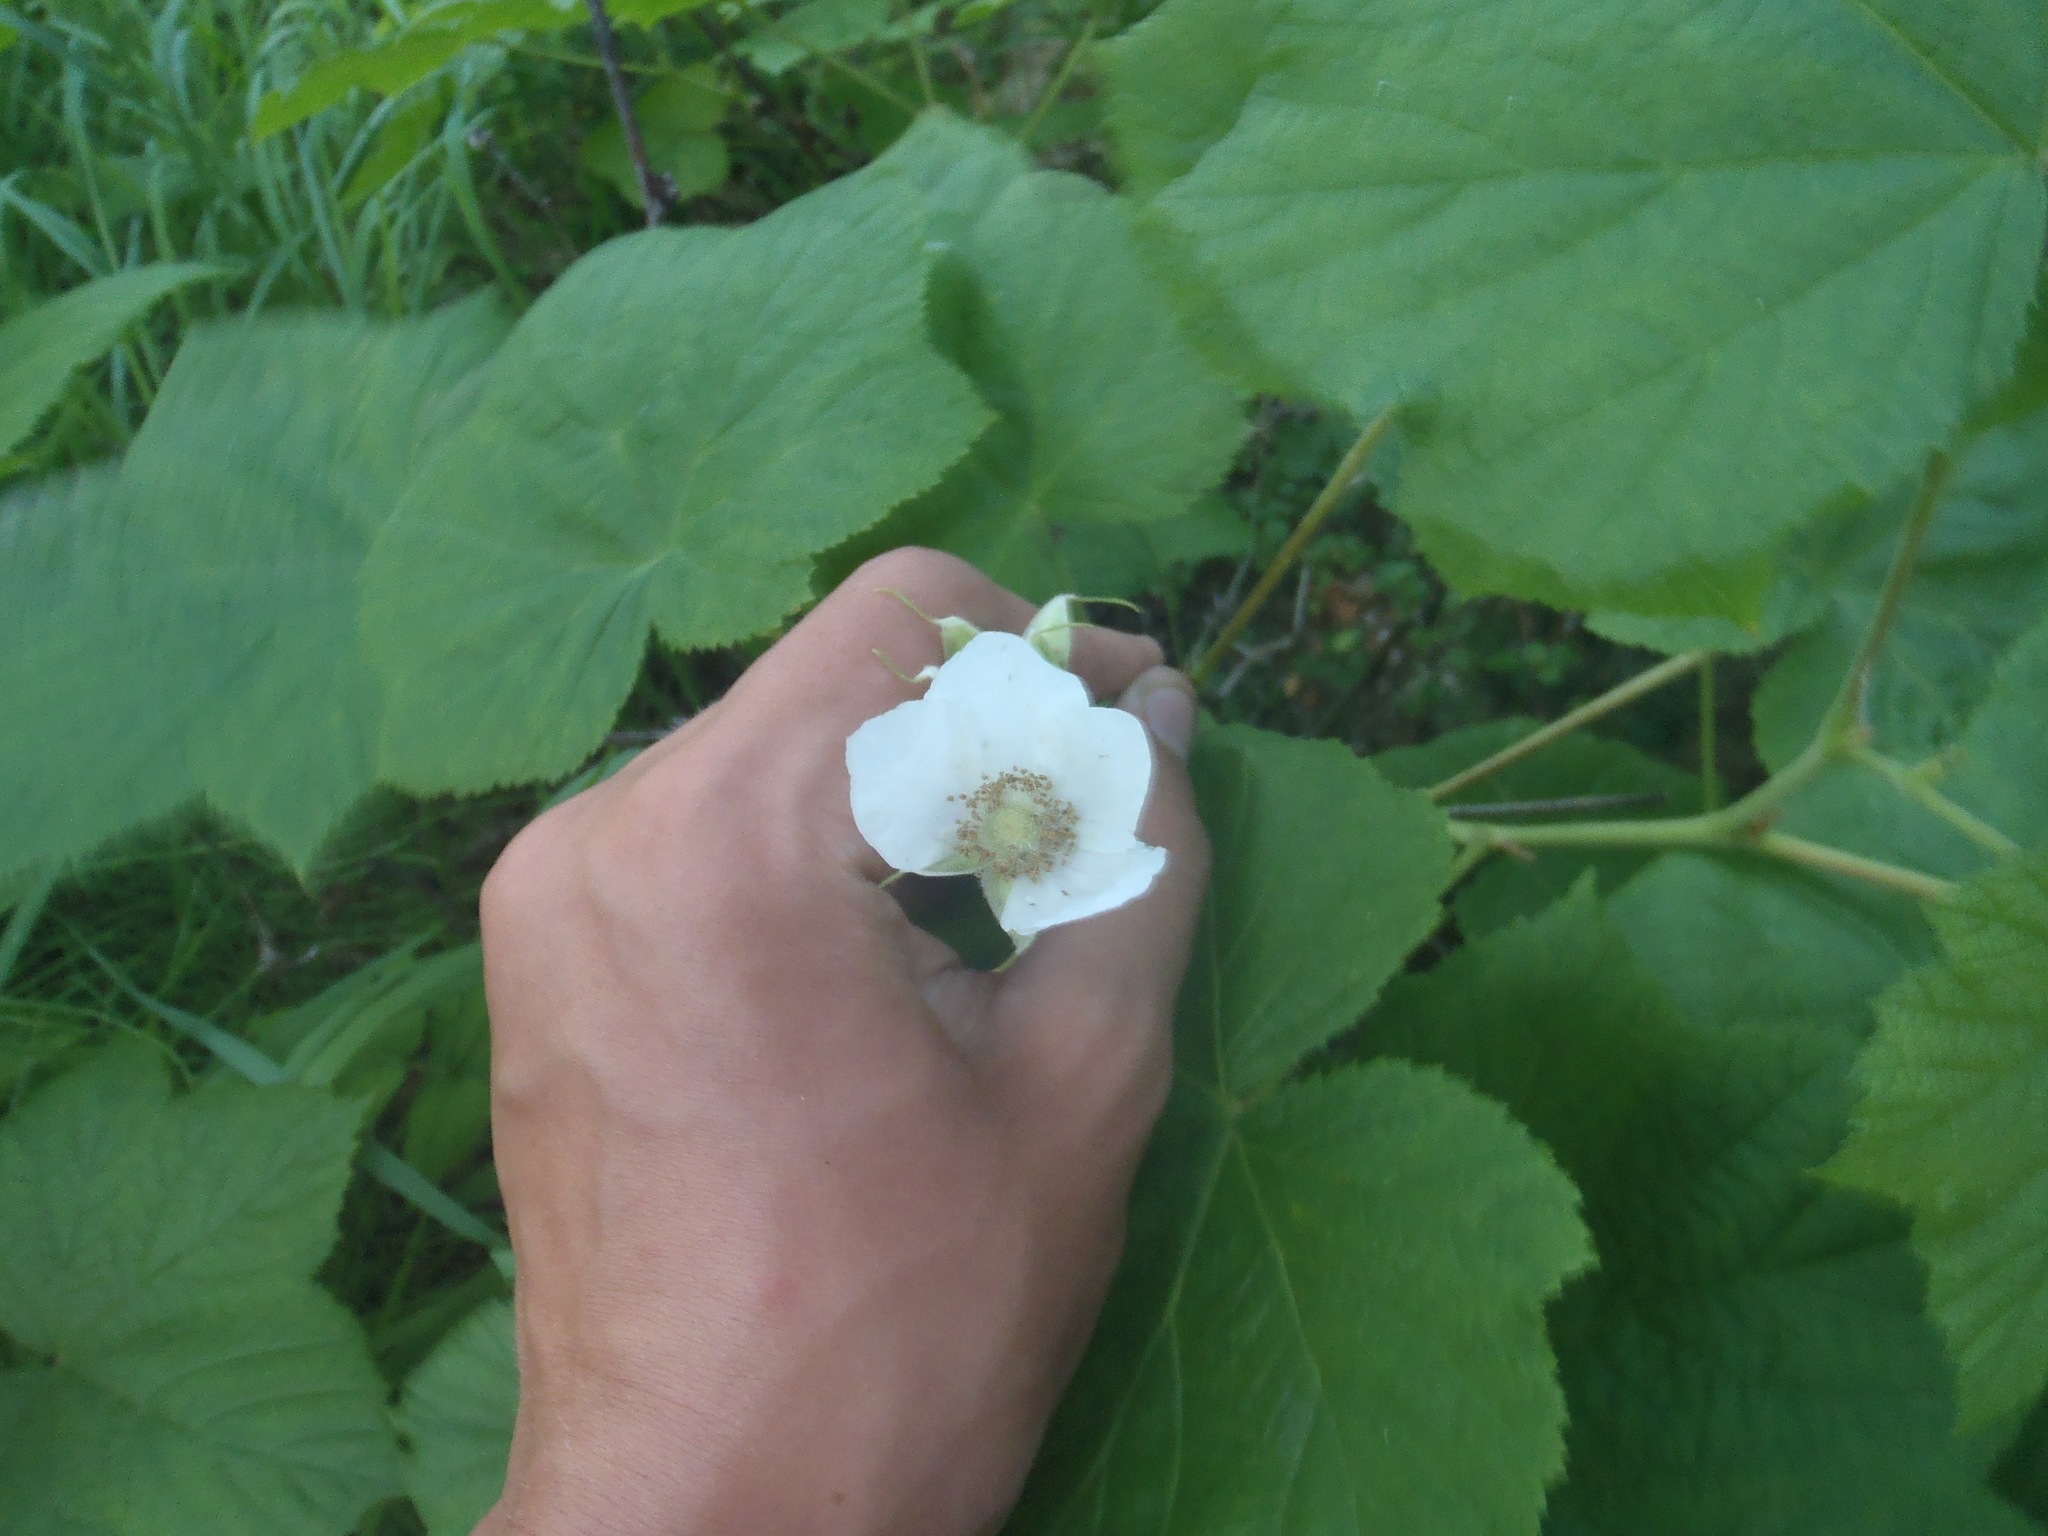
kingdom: Plantae
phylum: Tracheophyta
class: Magnoliopsida
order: Rosales
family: Rosaceae
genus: Rubus
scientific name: Rubus parviflorus
